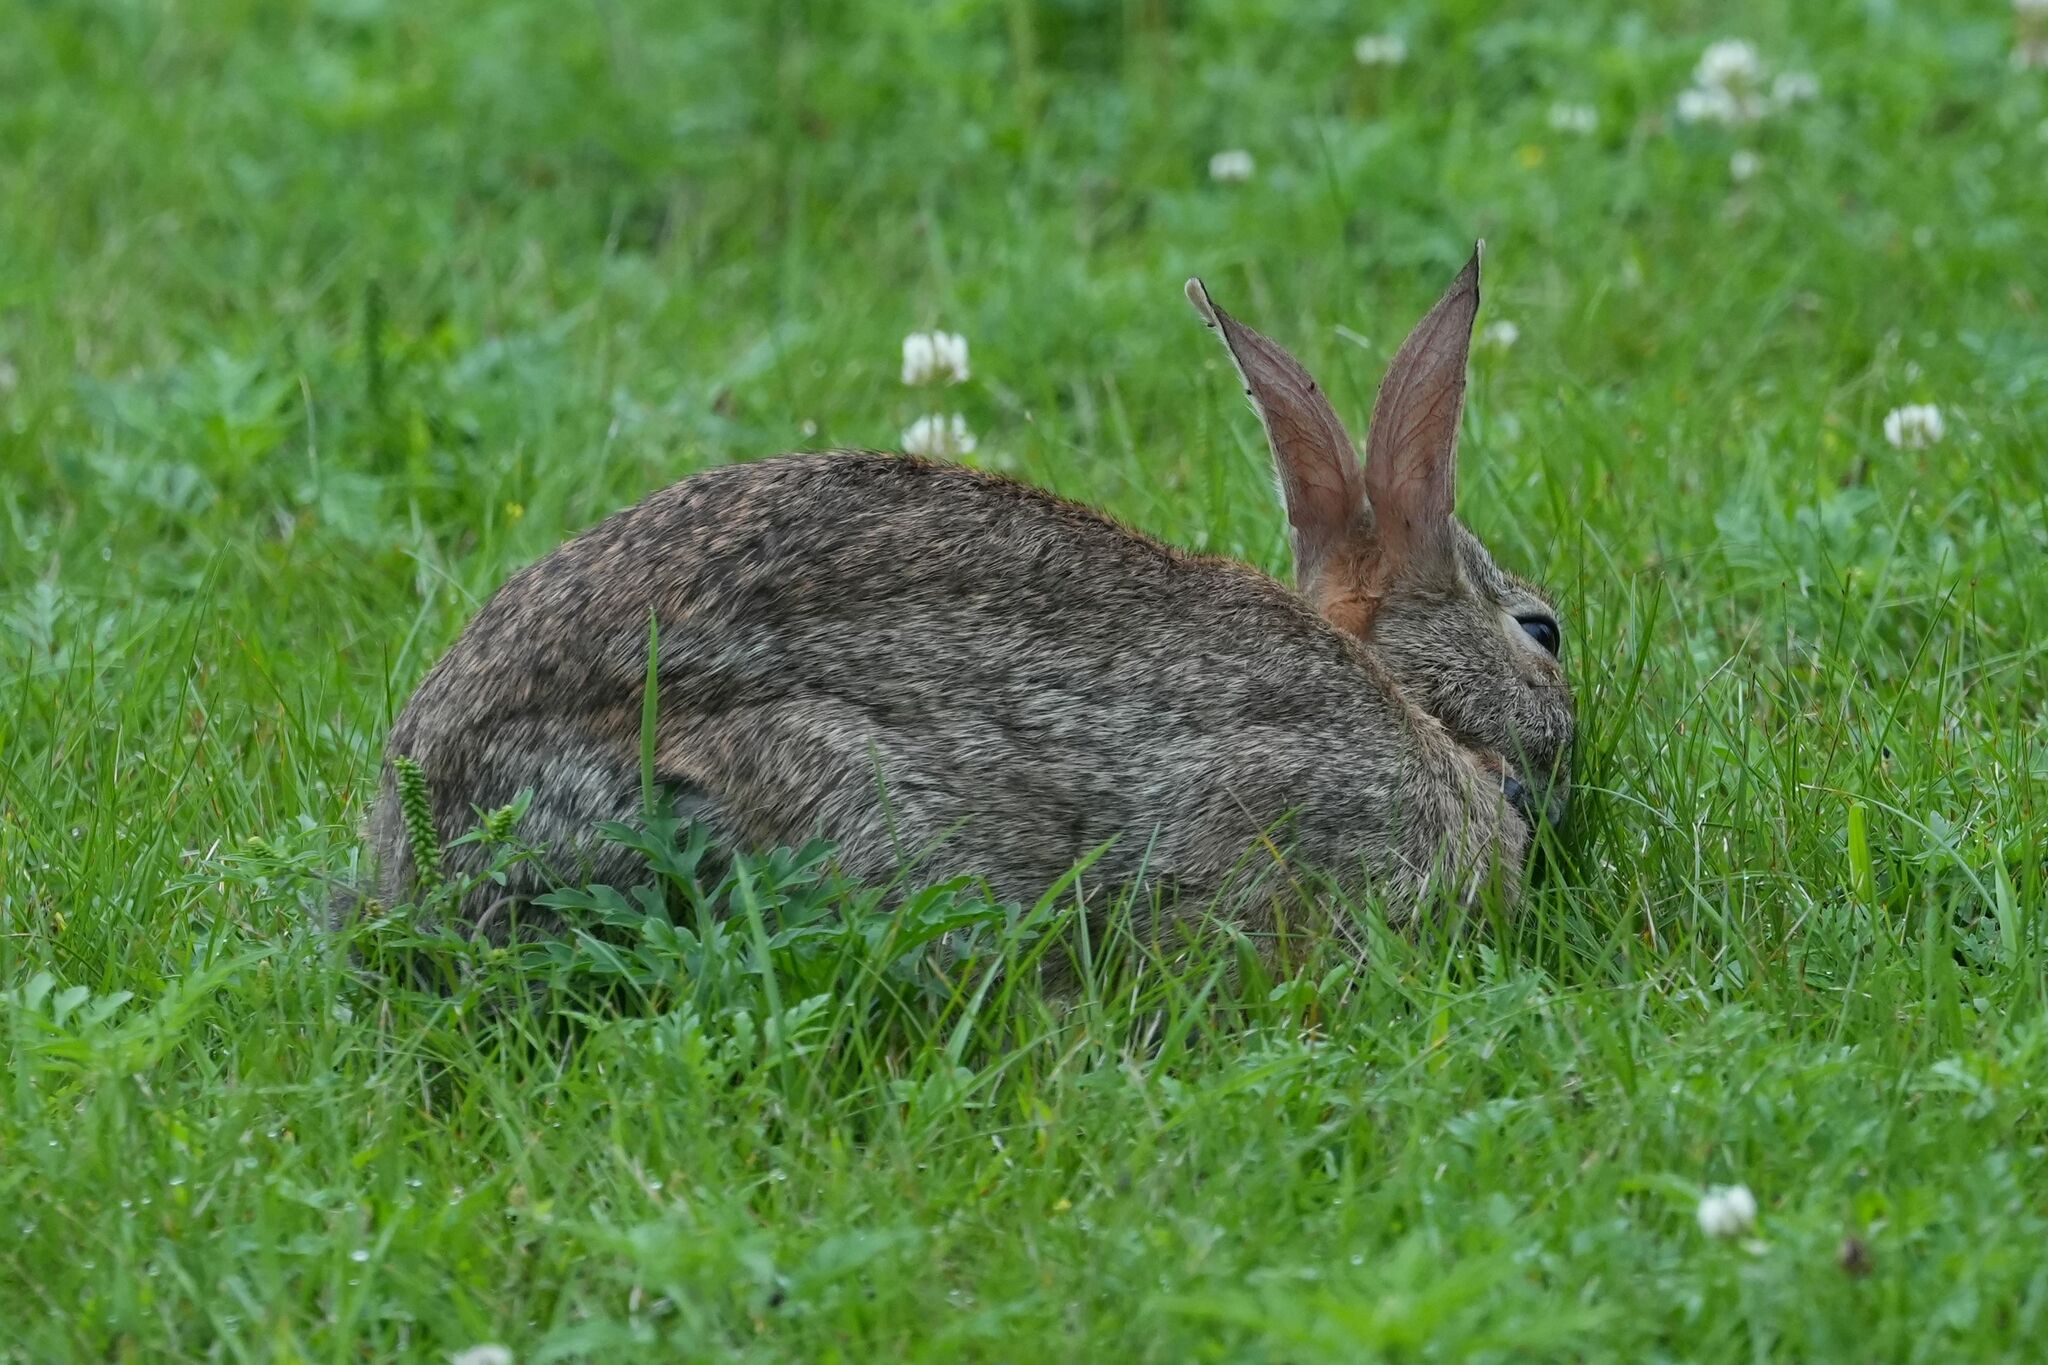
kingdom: Animalia
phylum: Chordata
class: Mammalia
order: Lagomorpha
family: Leporidae
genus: Sylvilagus
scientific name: Sylvilagus floridanus
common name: Eastern cottontail
